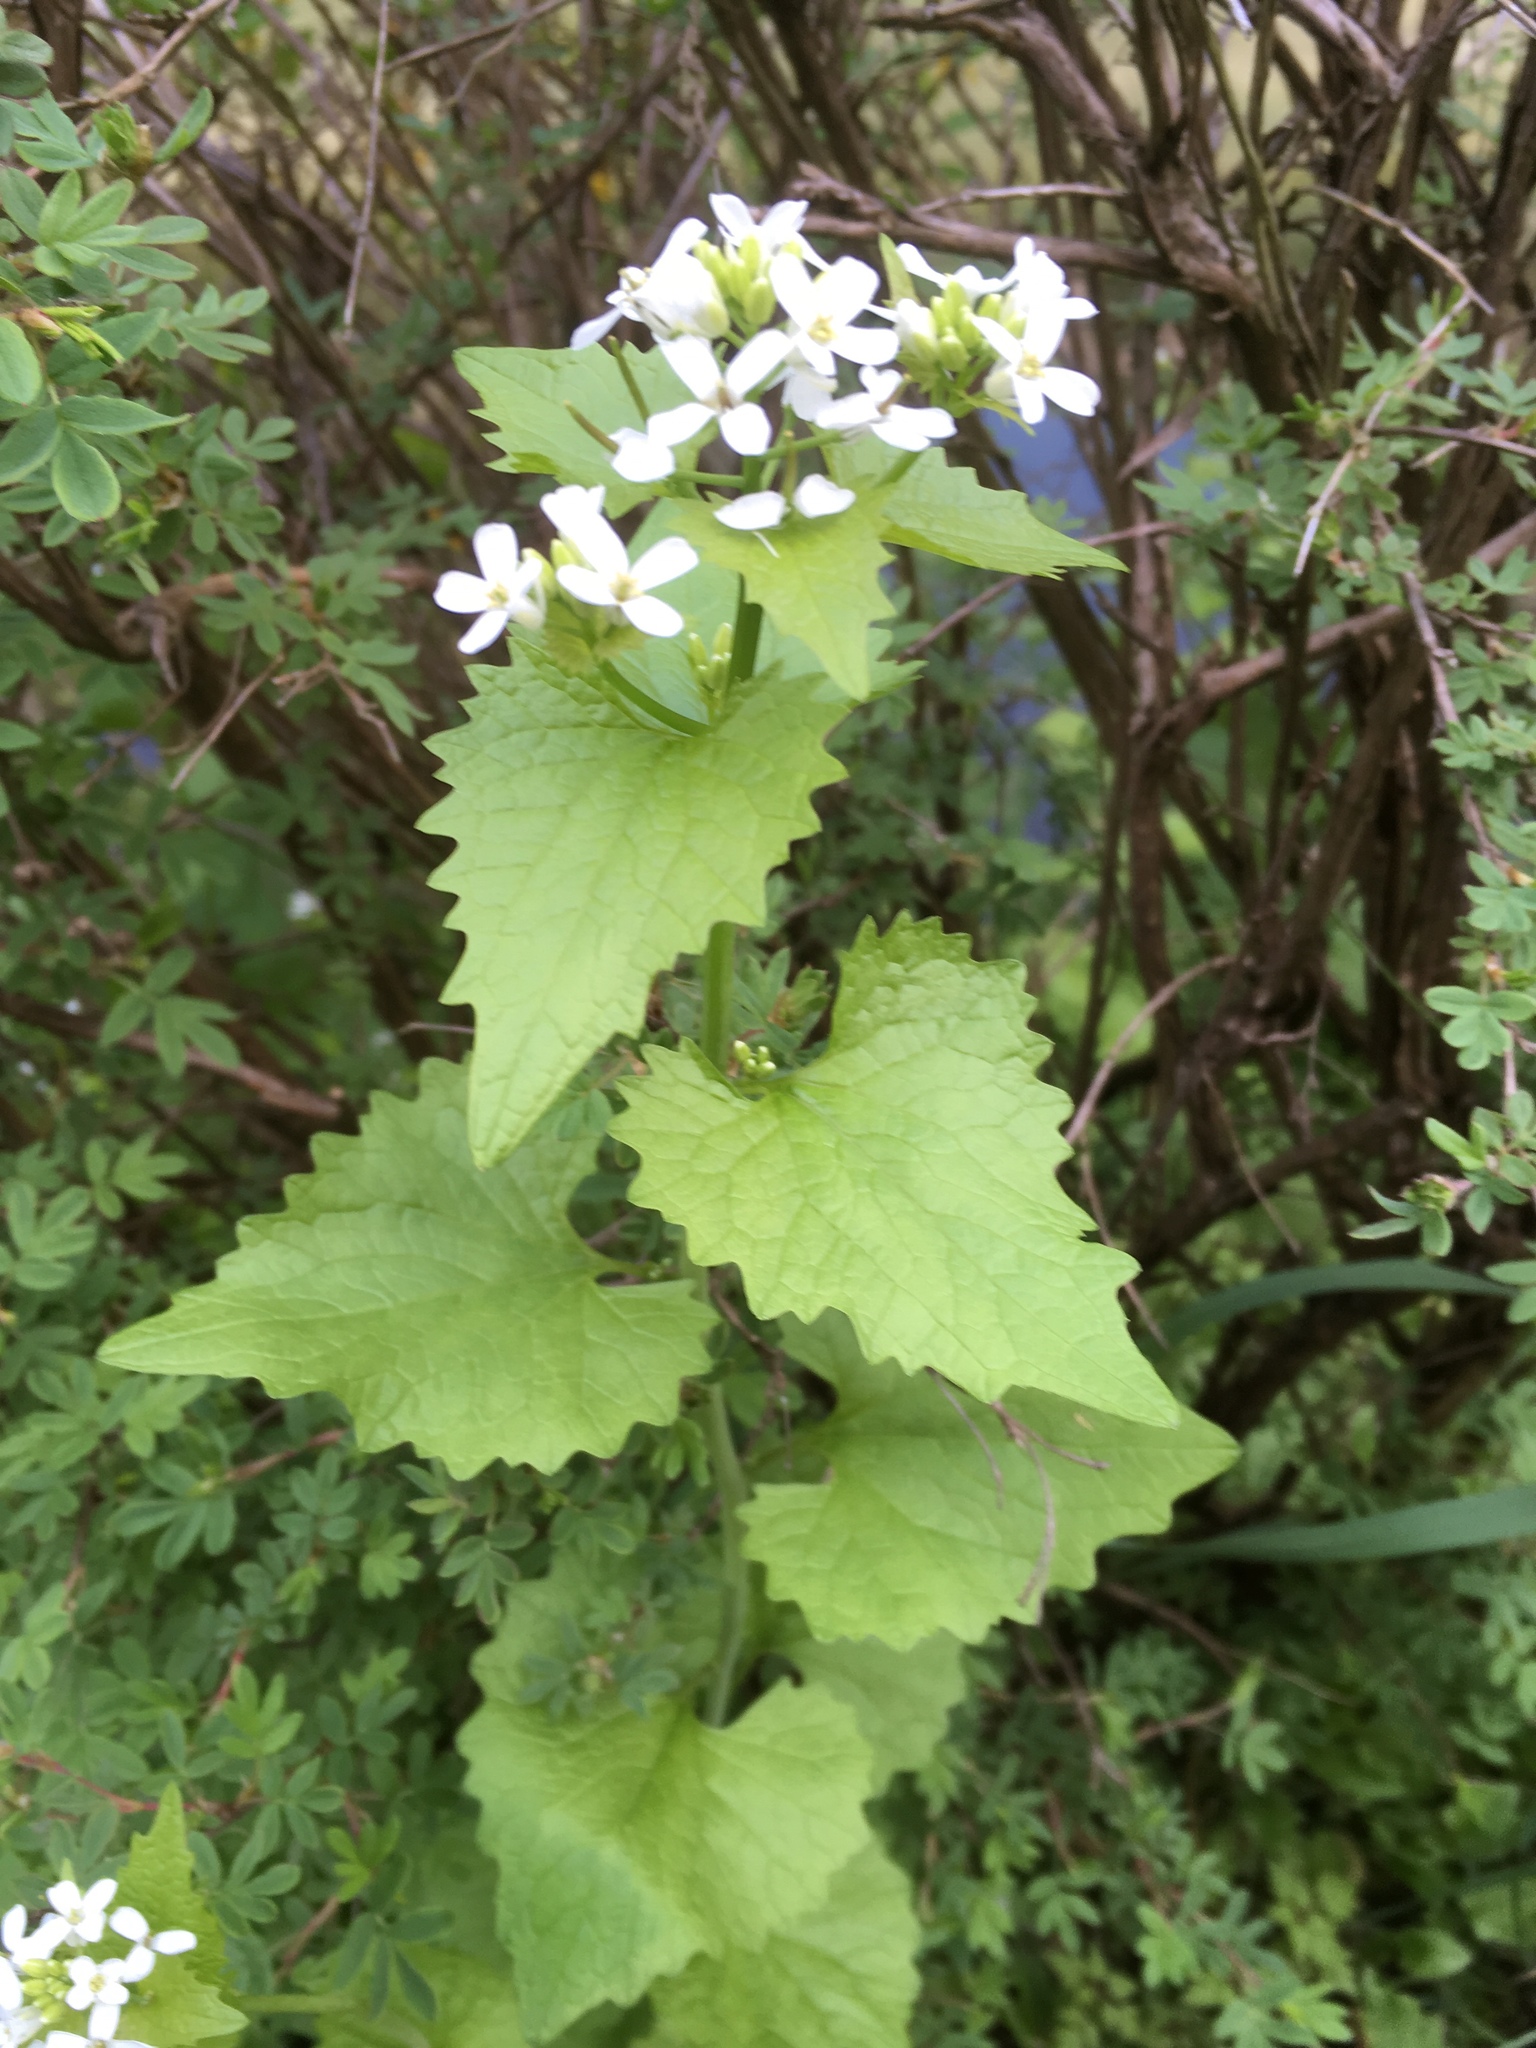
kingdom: Plantae
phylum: Tracheophyta
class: Magnoliopsida
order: Brassicales
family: Brassicaceae
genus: Alliaria
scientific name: Alliaria petiolata
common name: Garlic mustard
